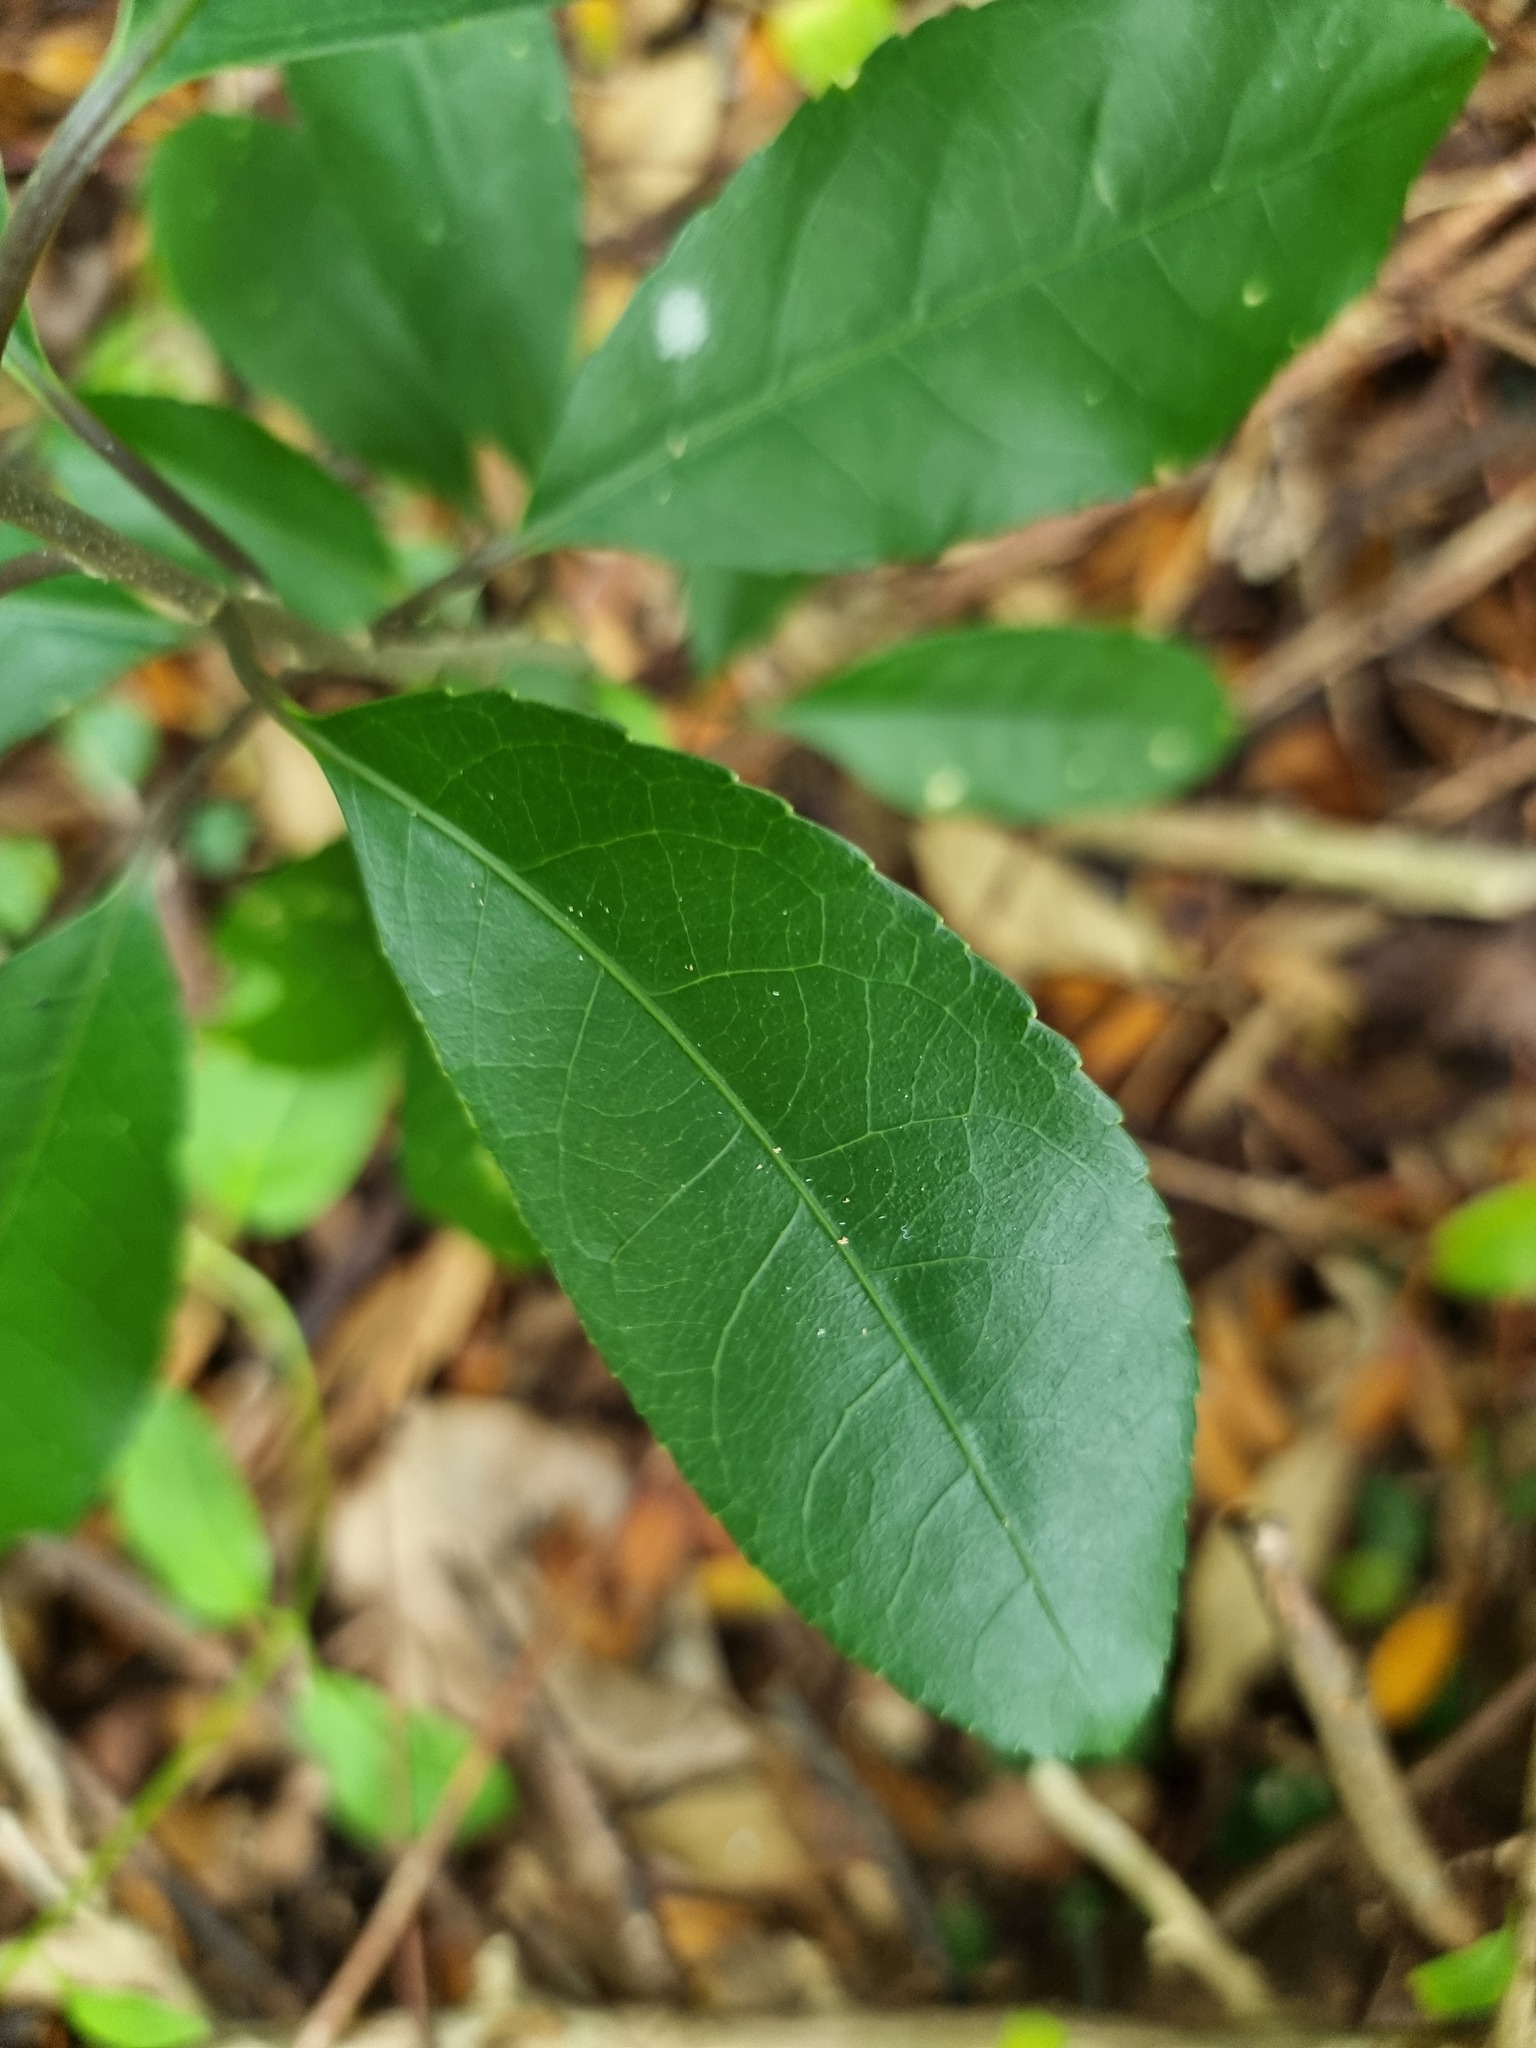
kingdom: Plantae
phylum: Tracheophyta
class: Magnoliopsida
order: Malpighiales
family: Violaceae
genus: Melicytus
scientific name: Melicytus ramiflorus
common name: Mahoe
